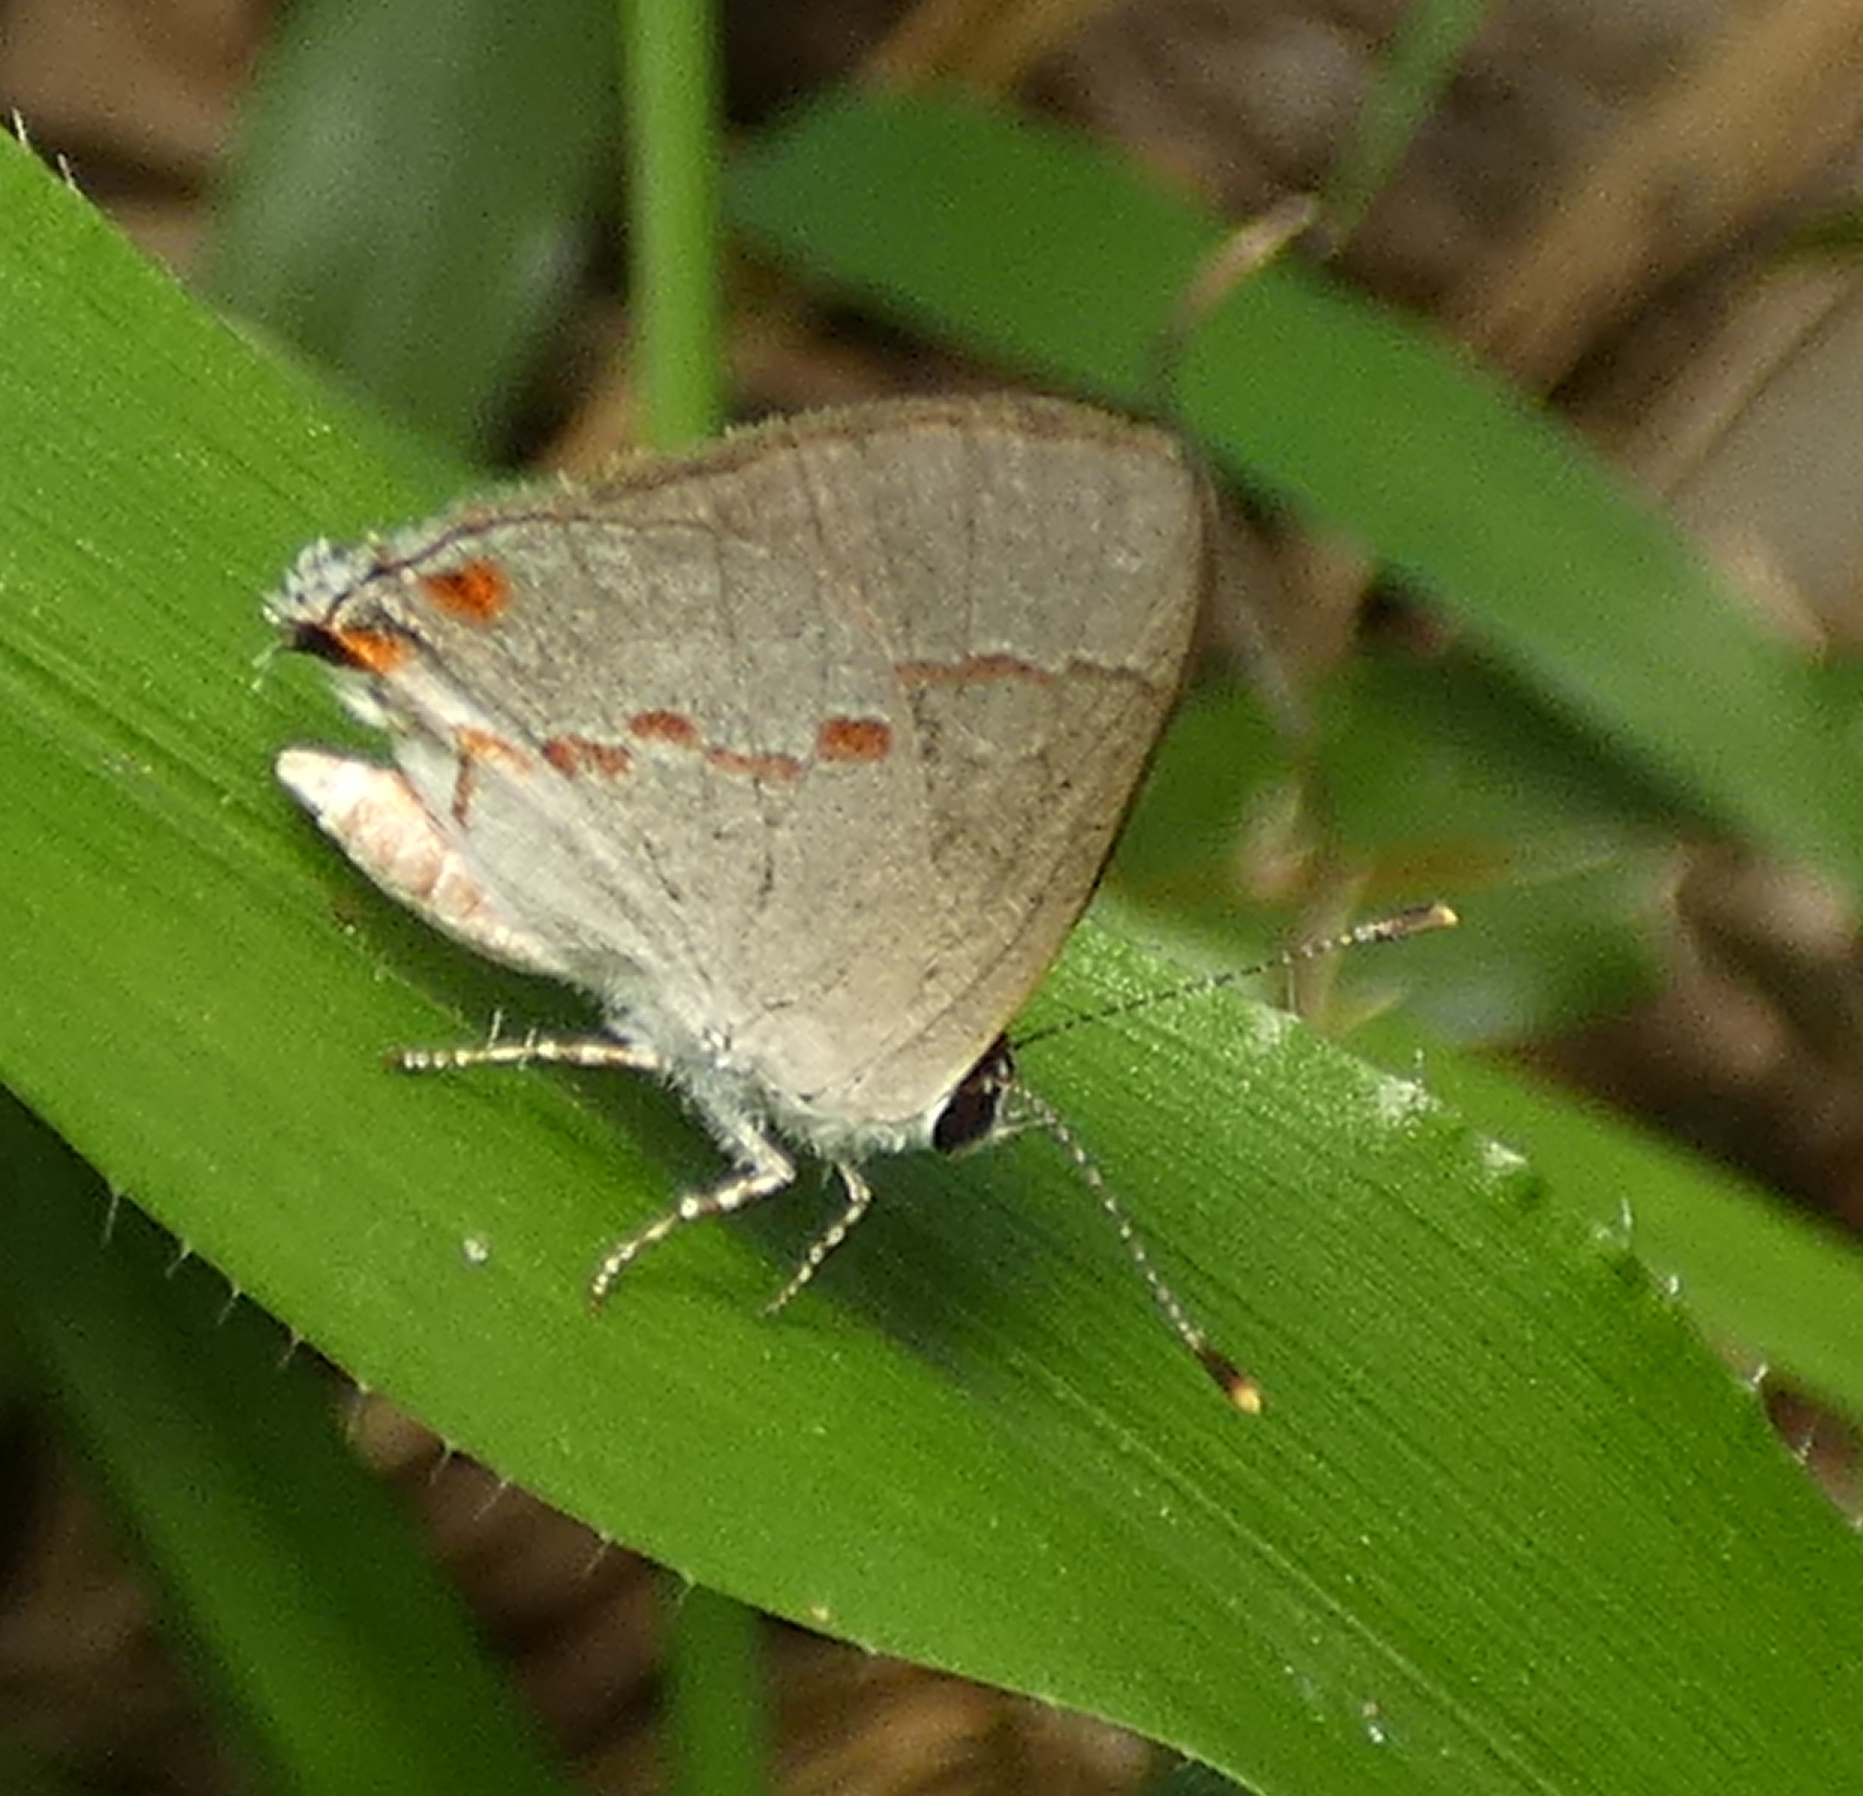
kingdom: Animalia
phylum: Arthropoda
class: Insecta
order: Lepidoptera
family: Lycaenidae
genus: Thecla
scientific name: Thecla azia
